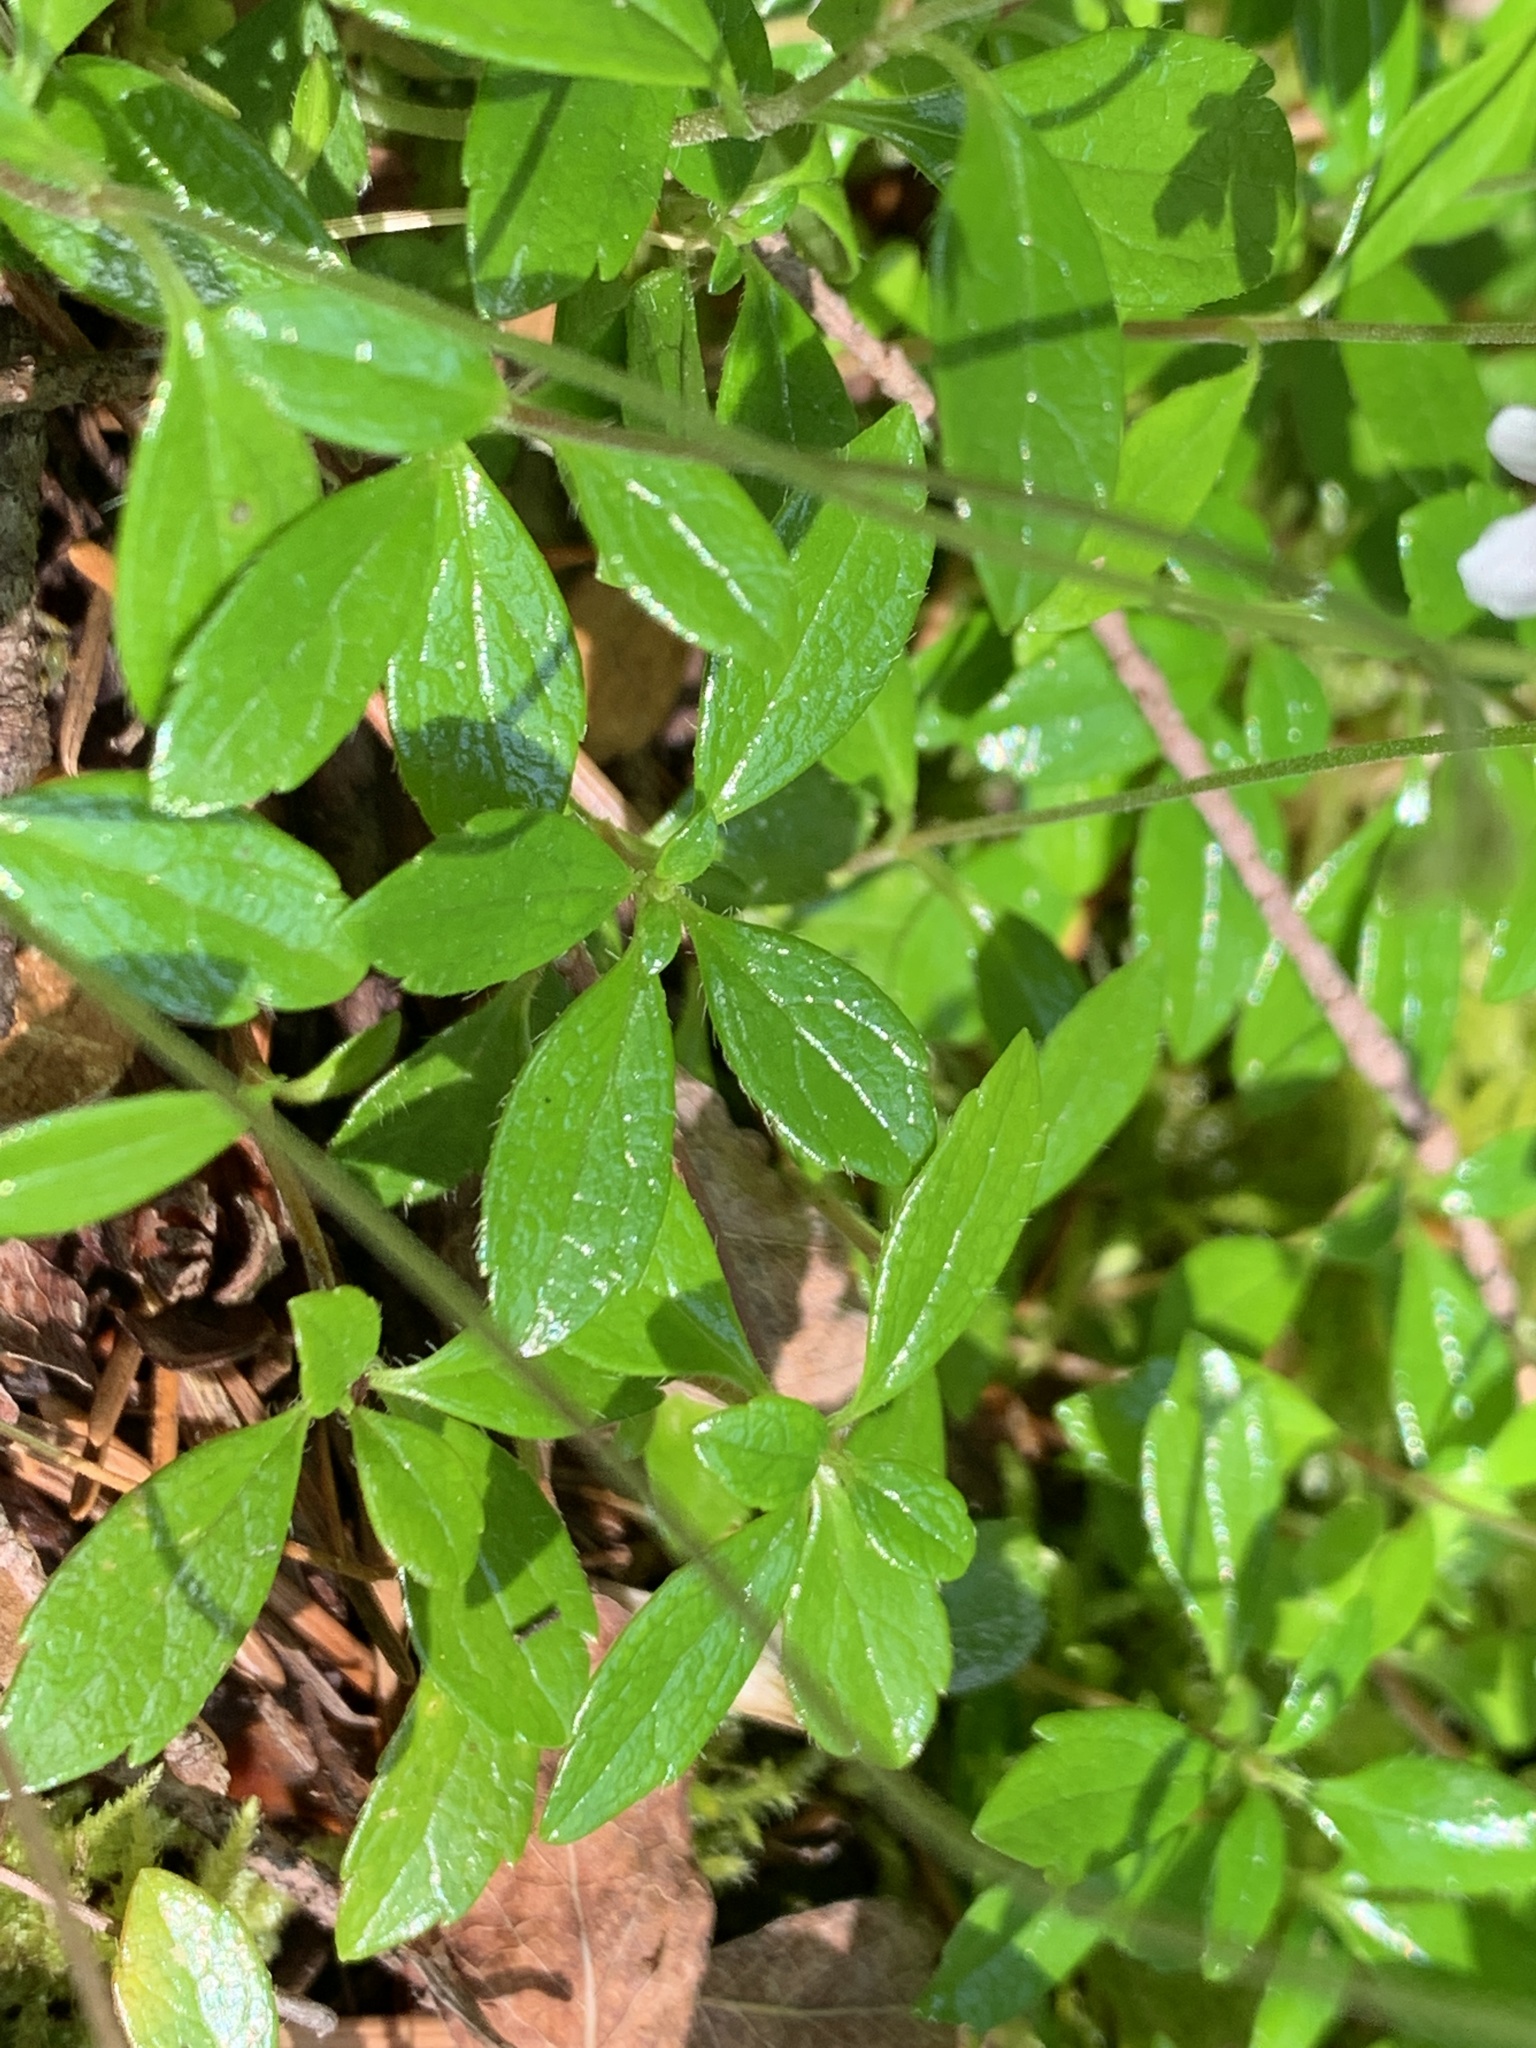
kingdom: Plantae
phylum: Tracheophyta
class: Magnoliopsida
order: Dipsacales
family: Caprifoliaceae
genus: Linnaea
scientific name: Linnaea borealis
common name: Twinflower
